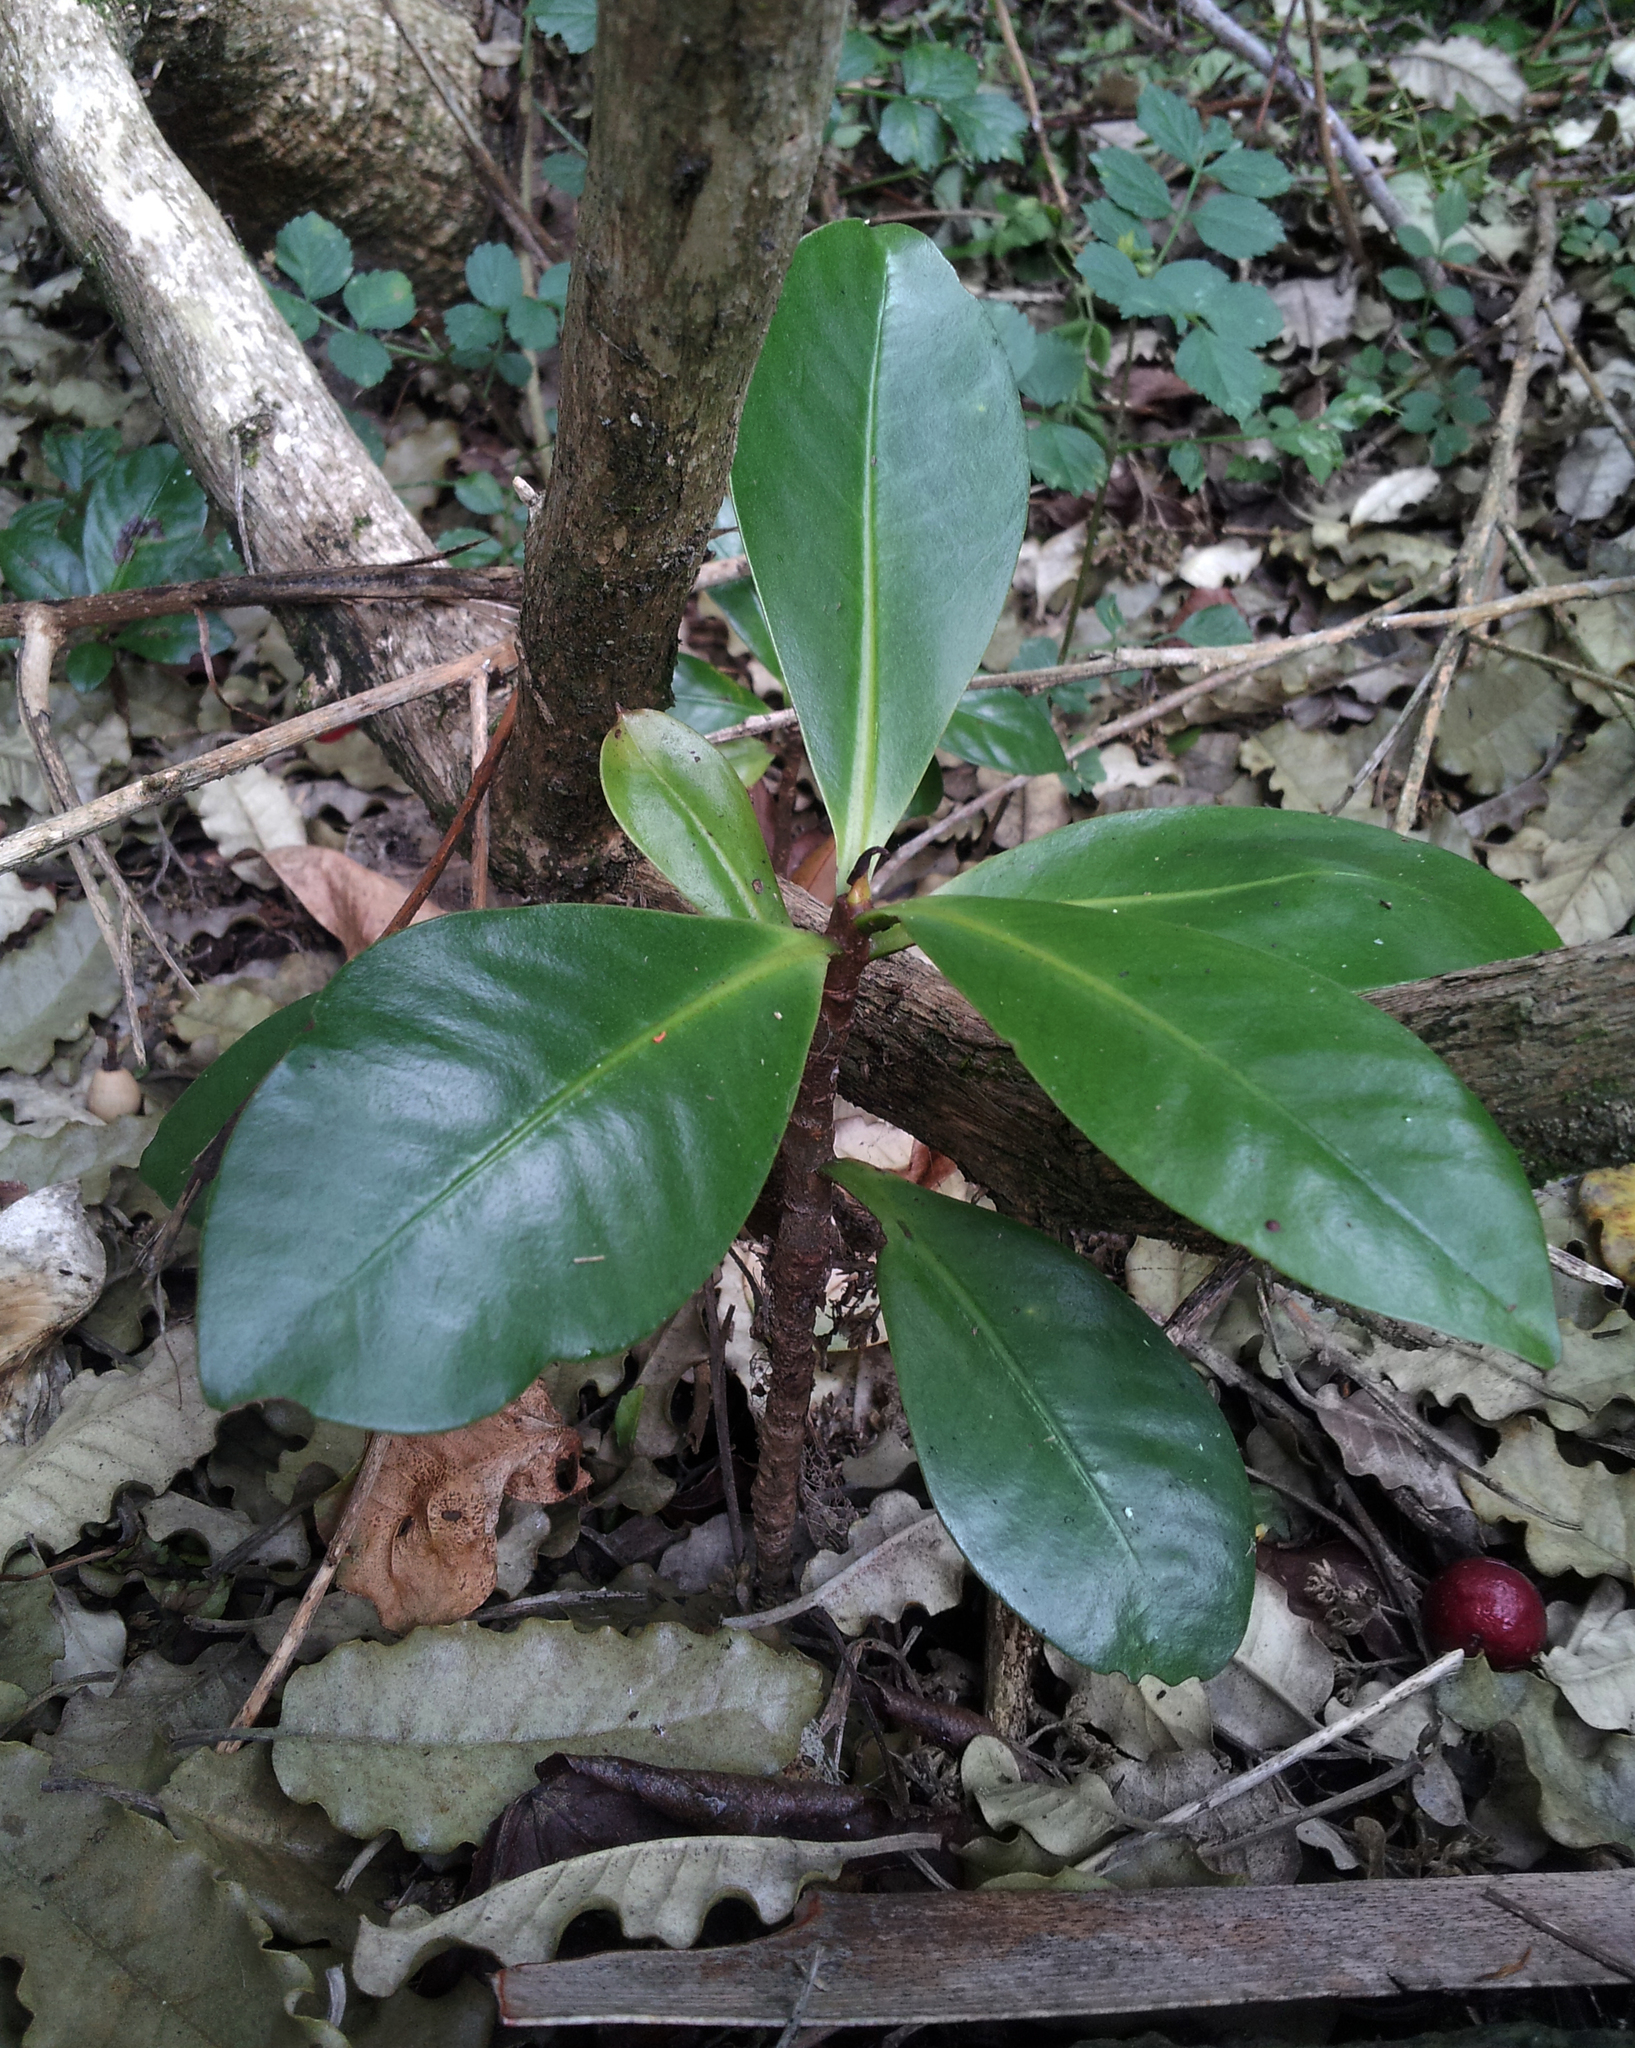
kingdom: Plantae
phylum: Tracheophyta
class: Magnoliopsida
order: Ericales
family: Primulaceae
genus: Elingamita
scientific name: Elingamita johnsonii
